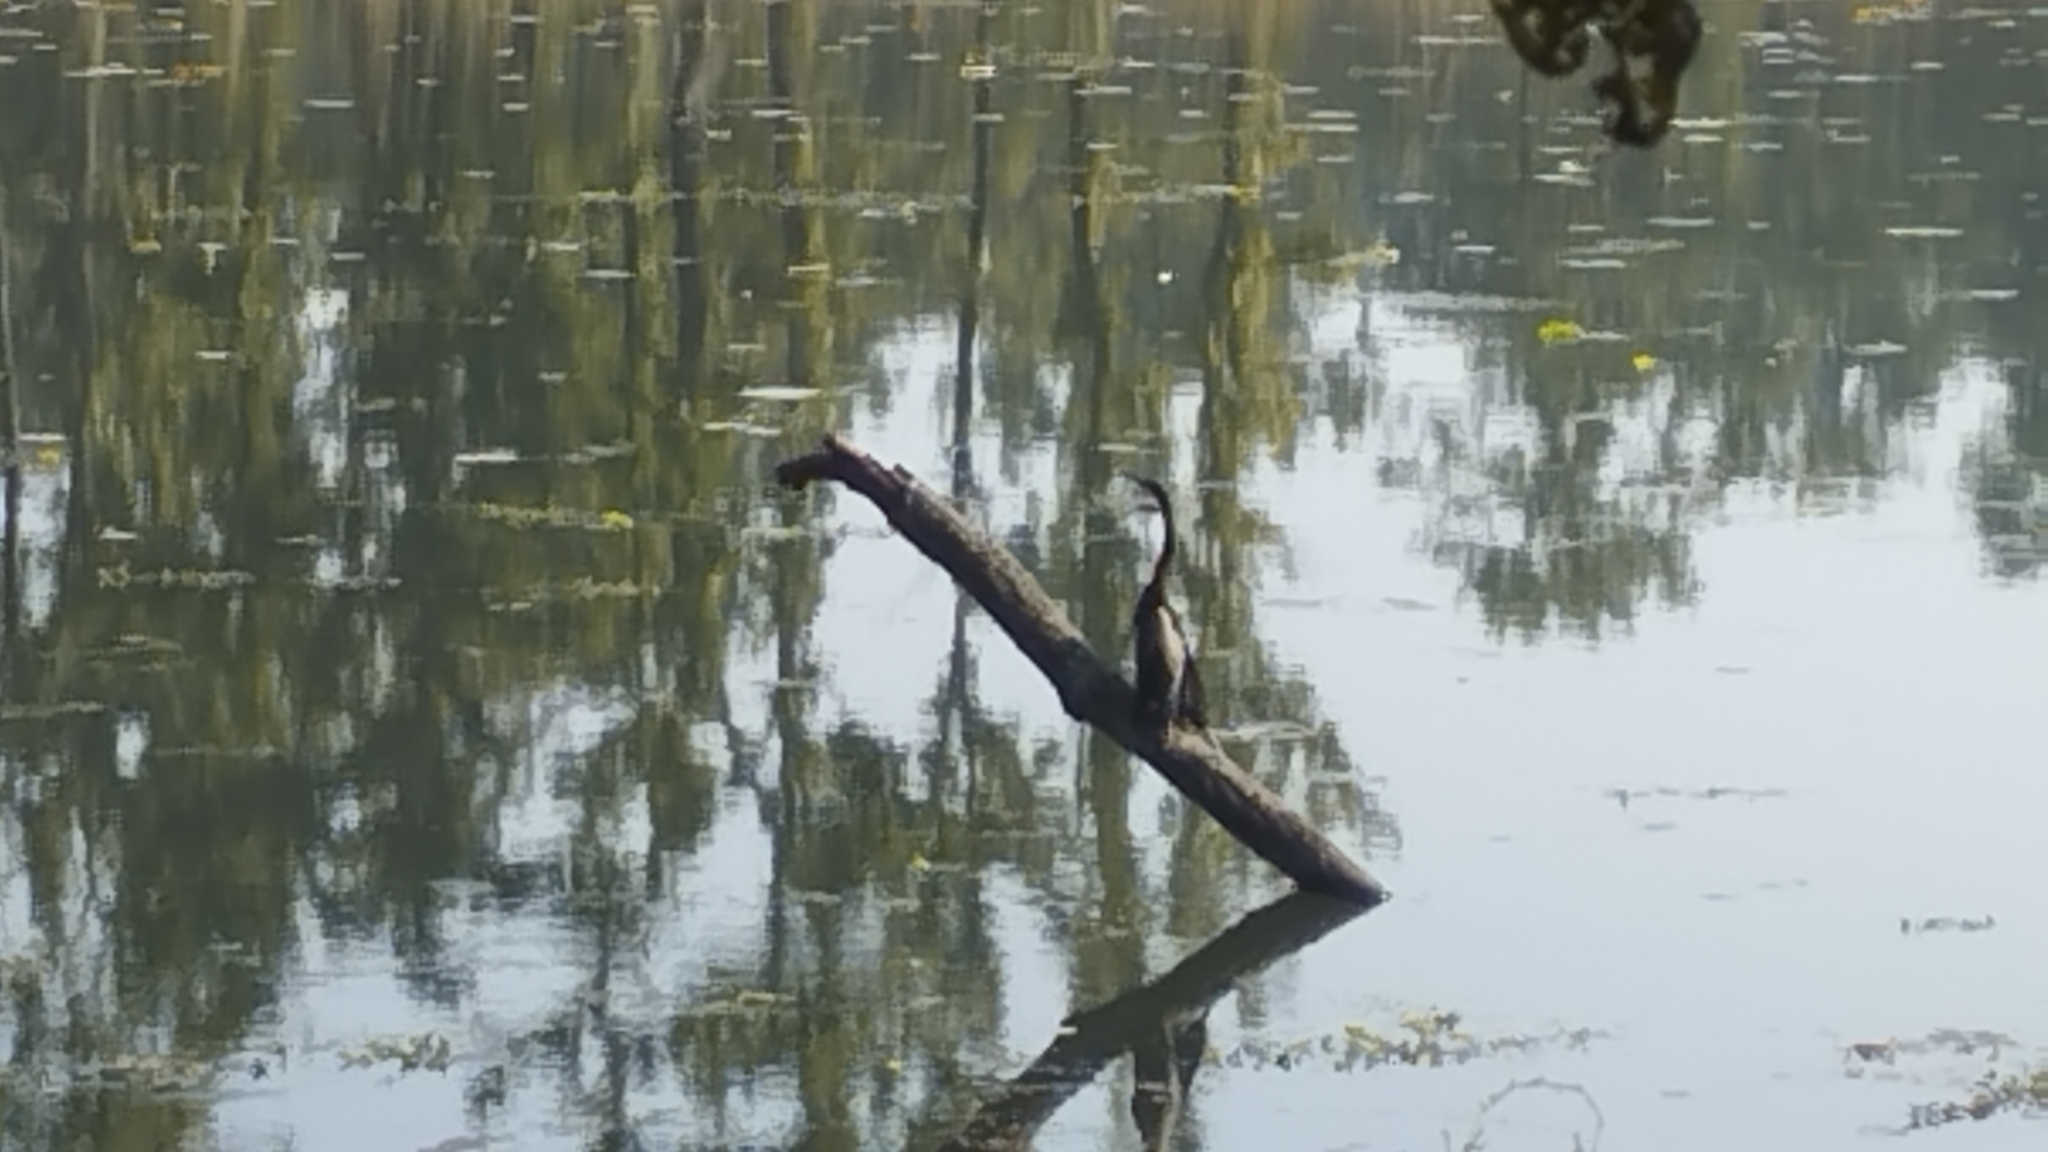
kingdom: Animalia
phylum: Chordata
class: Aves
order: Suliformes
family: Anhingidae
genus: Anhinga
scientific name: Anhinga melanogaster
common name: Oriental darter
